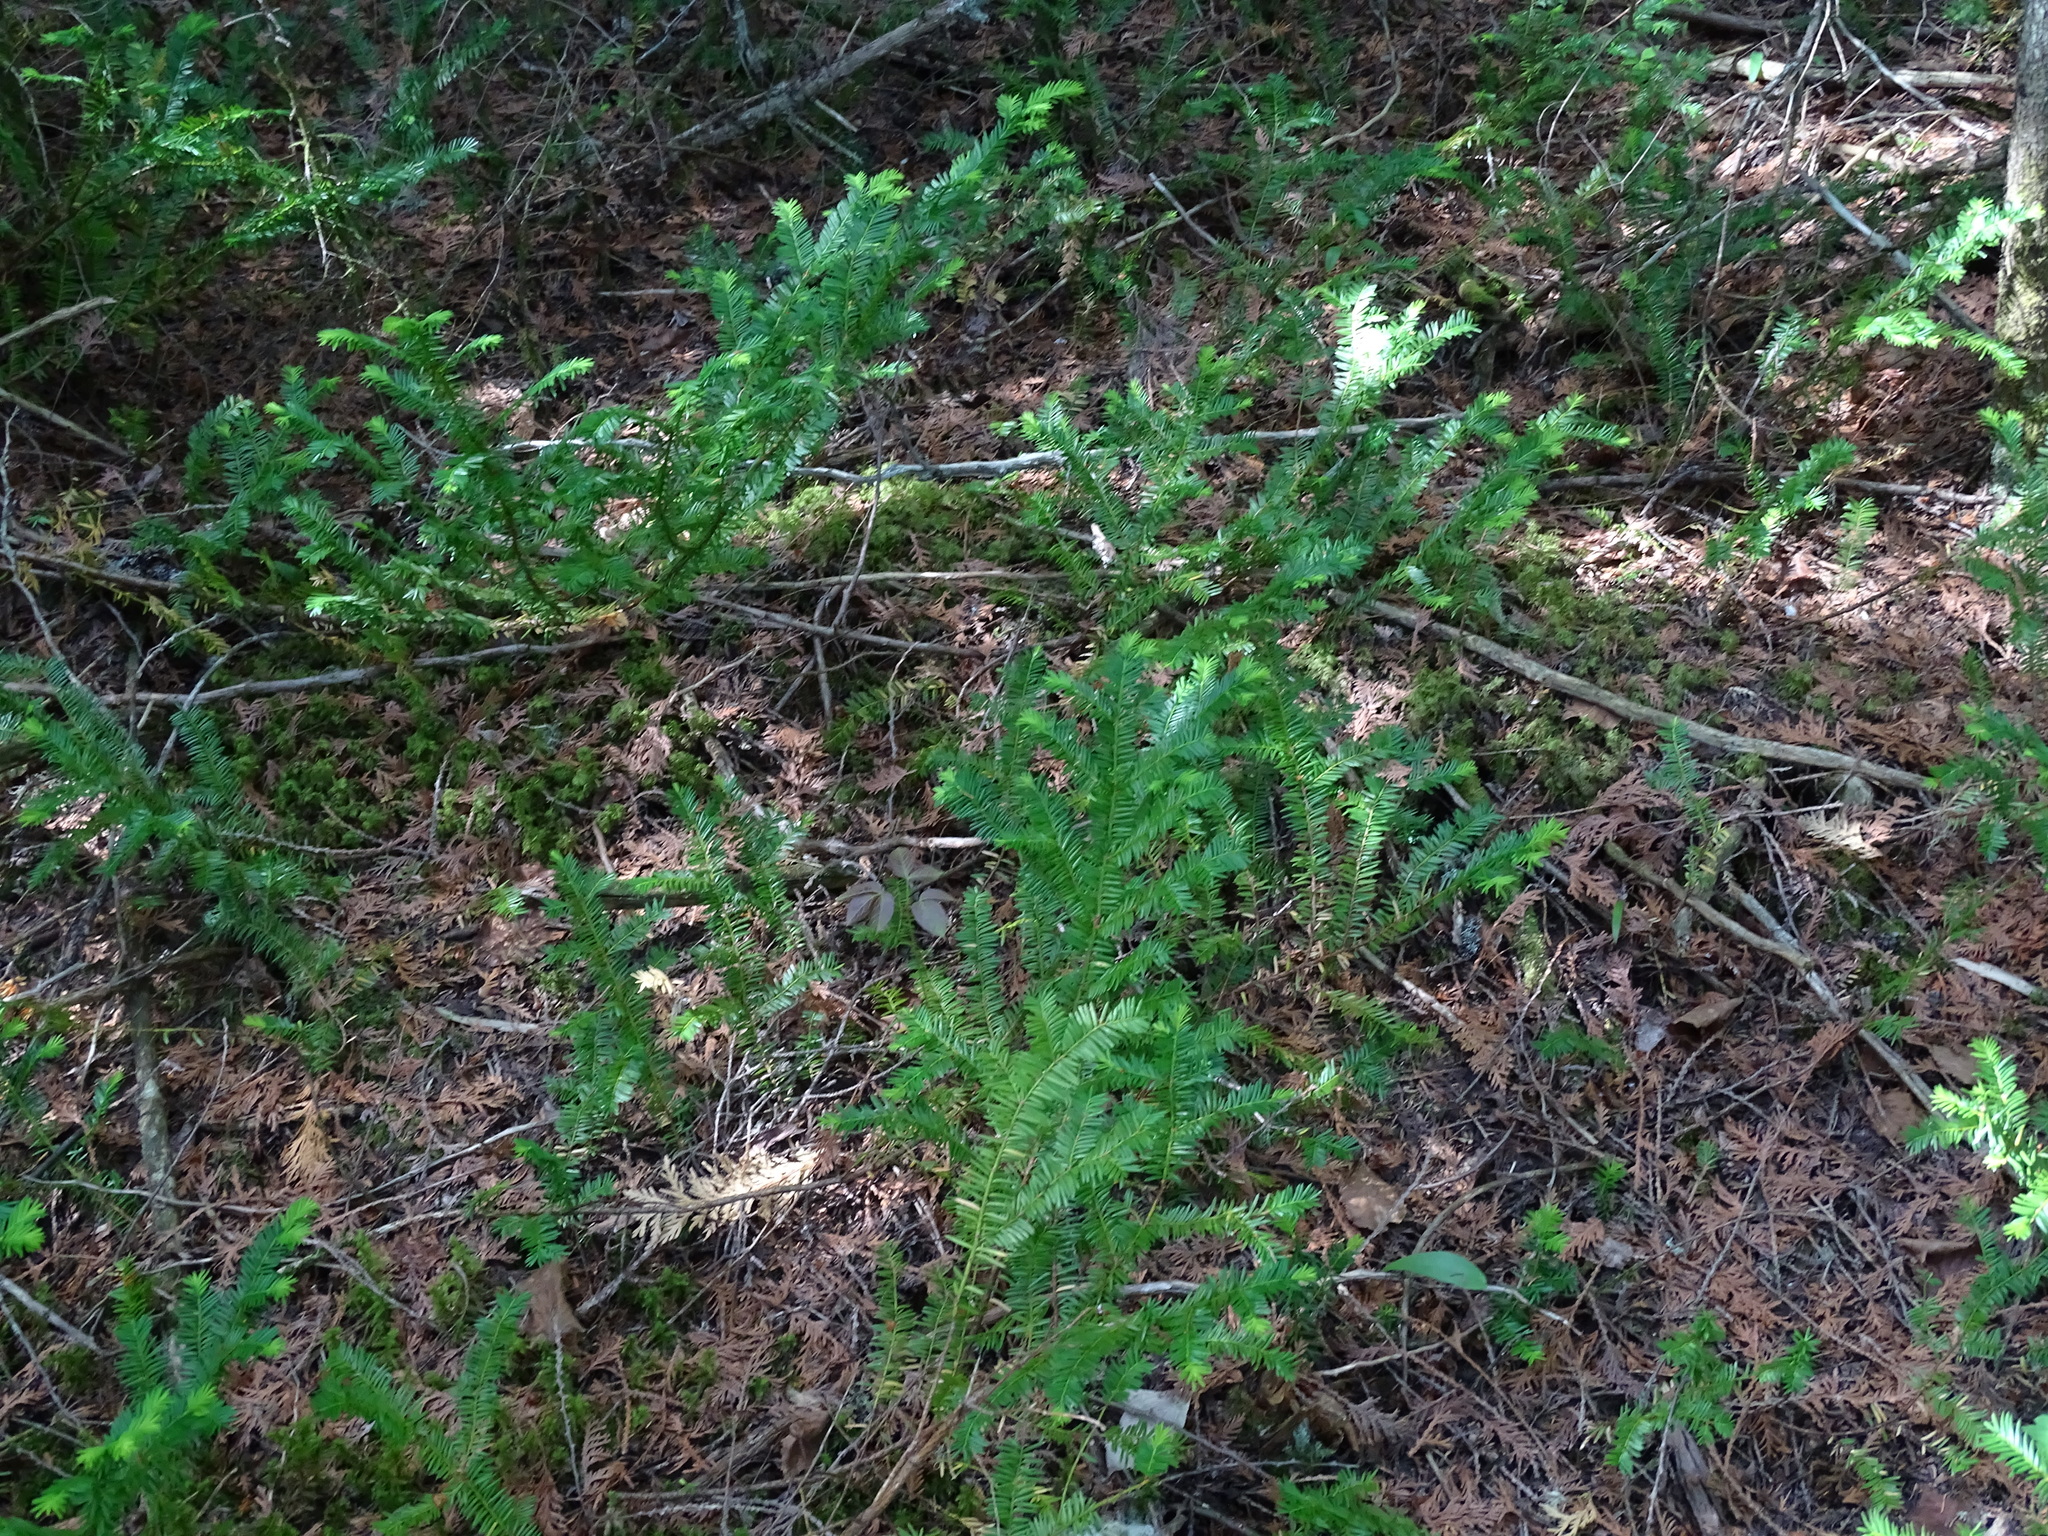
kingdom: Plantae
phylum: Tracheophyta
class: Pinopsida
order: Pinales
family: Taxaceae
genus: Taxus
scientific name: Taxus canadensis
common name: American yew
